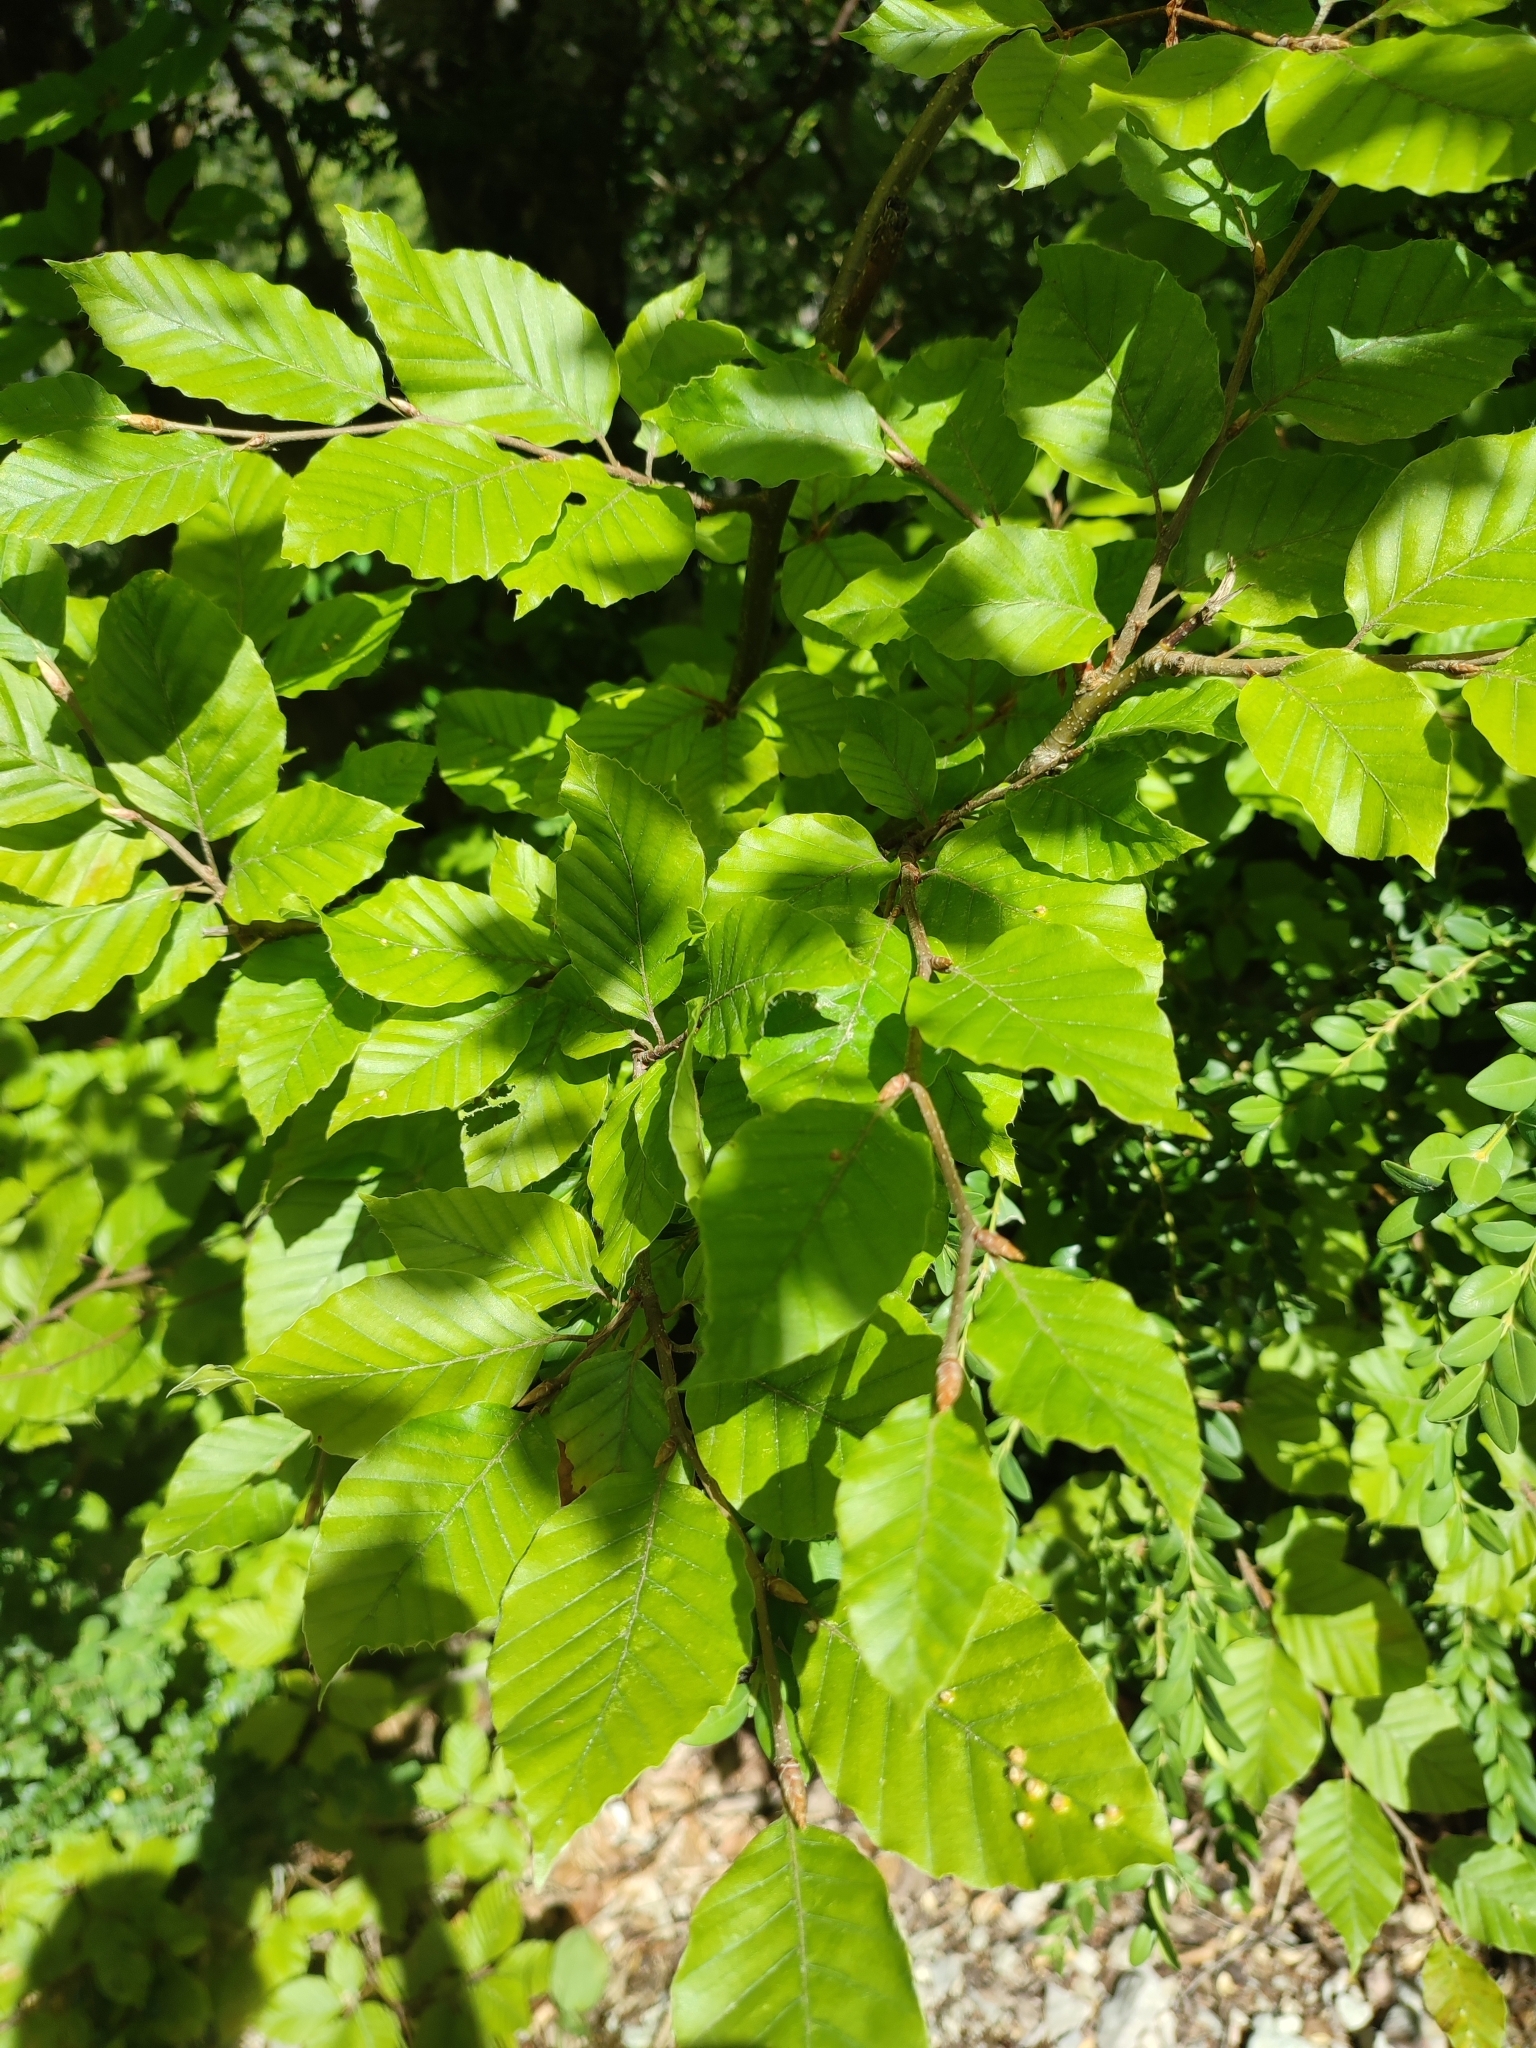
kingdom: Plantae
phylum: Tracheophyta
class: Magnoliopsida
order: Fagales
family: Fagaceae
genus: Fagus
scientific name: Fagus sylvatica
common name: Beech
